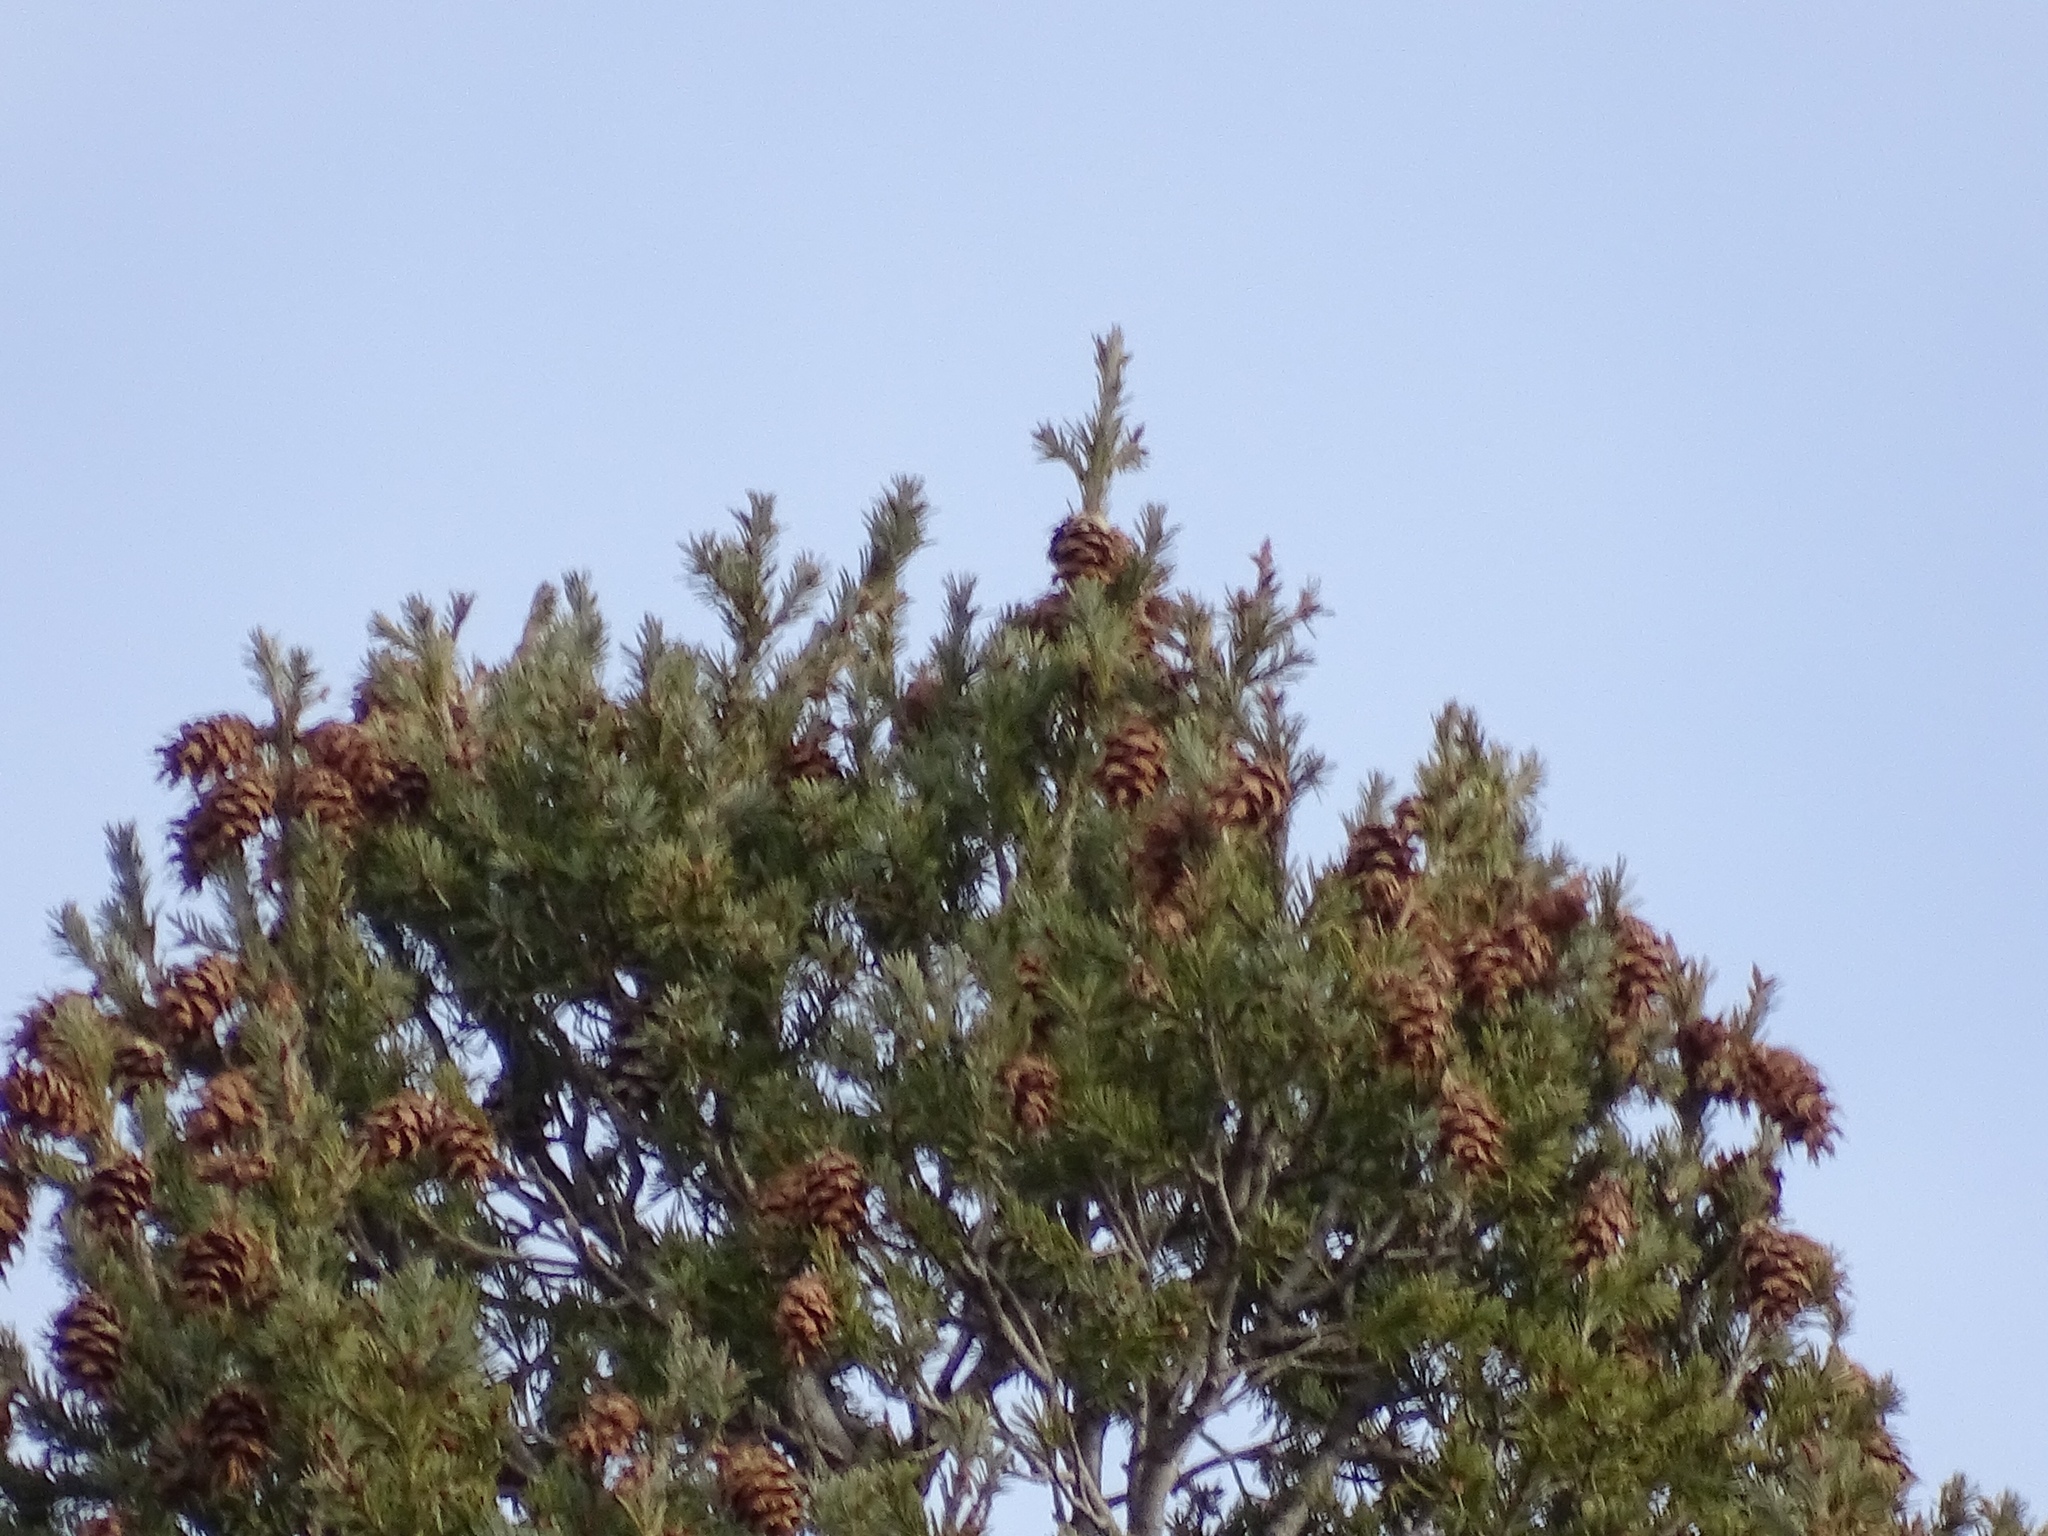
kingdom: Plantae
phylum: Tracheophyta
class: Pinopsida
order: Pinales
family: Pinaceae
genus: Pseudotsuga
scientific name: Pseudotsuga menziesii
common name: Douglas fir
